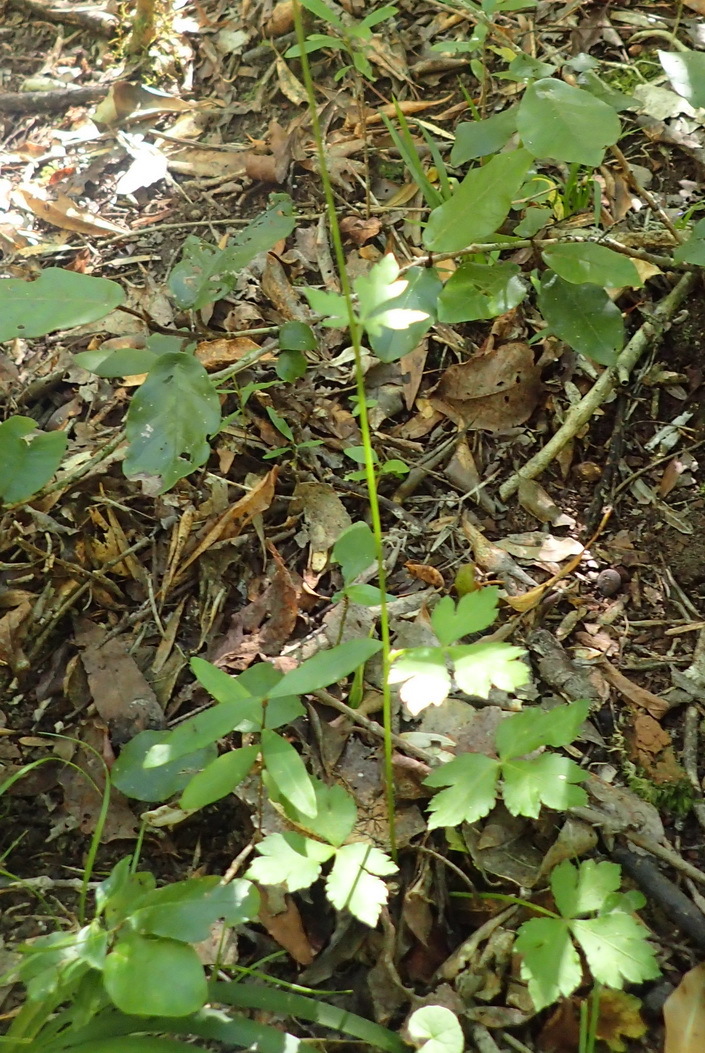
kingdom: Plantae
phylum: Tracheophyta
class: Magnoliopsida
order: Apiales
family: Apiaceae
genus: Sanicula
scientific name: Sanicula elata
